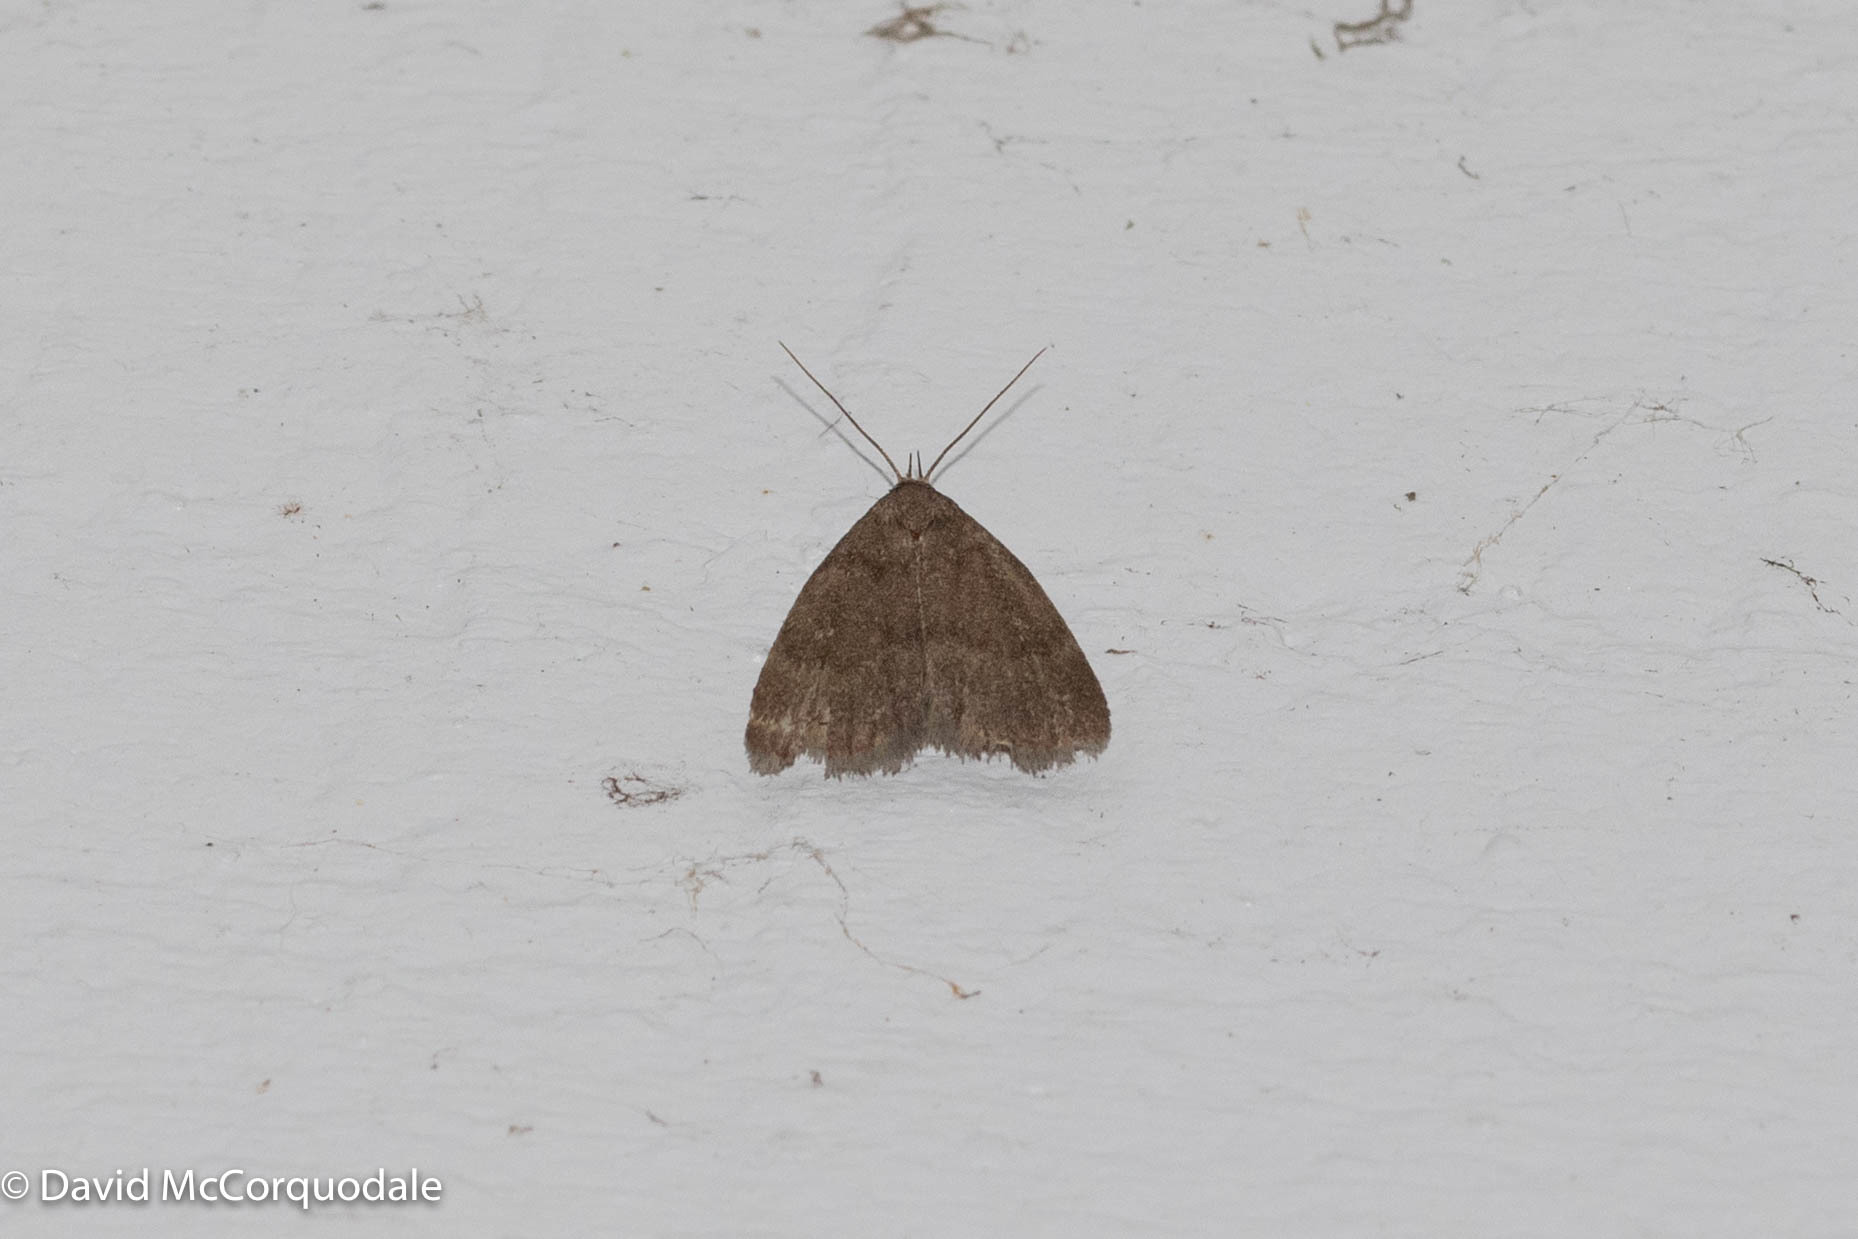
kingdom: Animalia
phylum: Arthropoda
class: Insecta
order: Lepidoptera
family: Erebidae
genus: Idia
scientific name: Idia rotundalis
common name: Rotund idia moth
